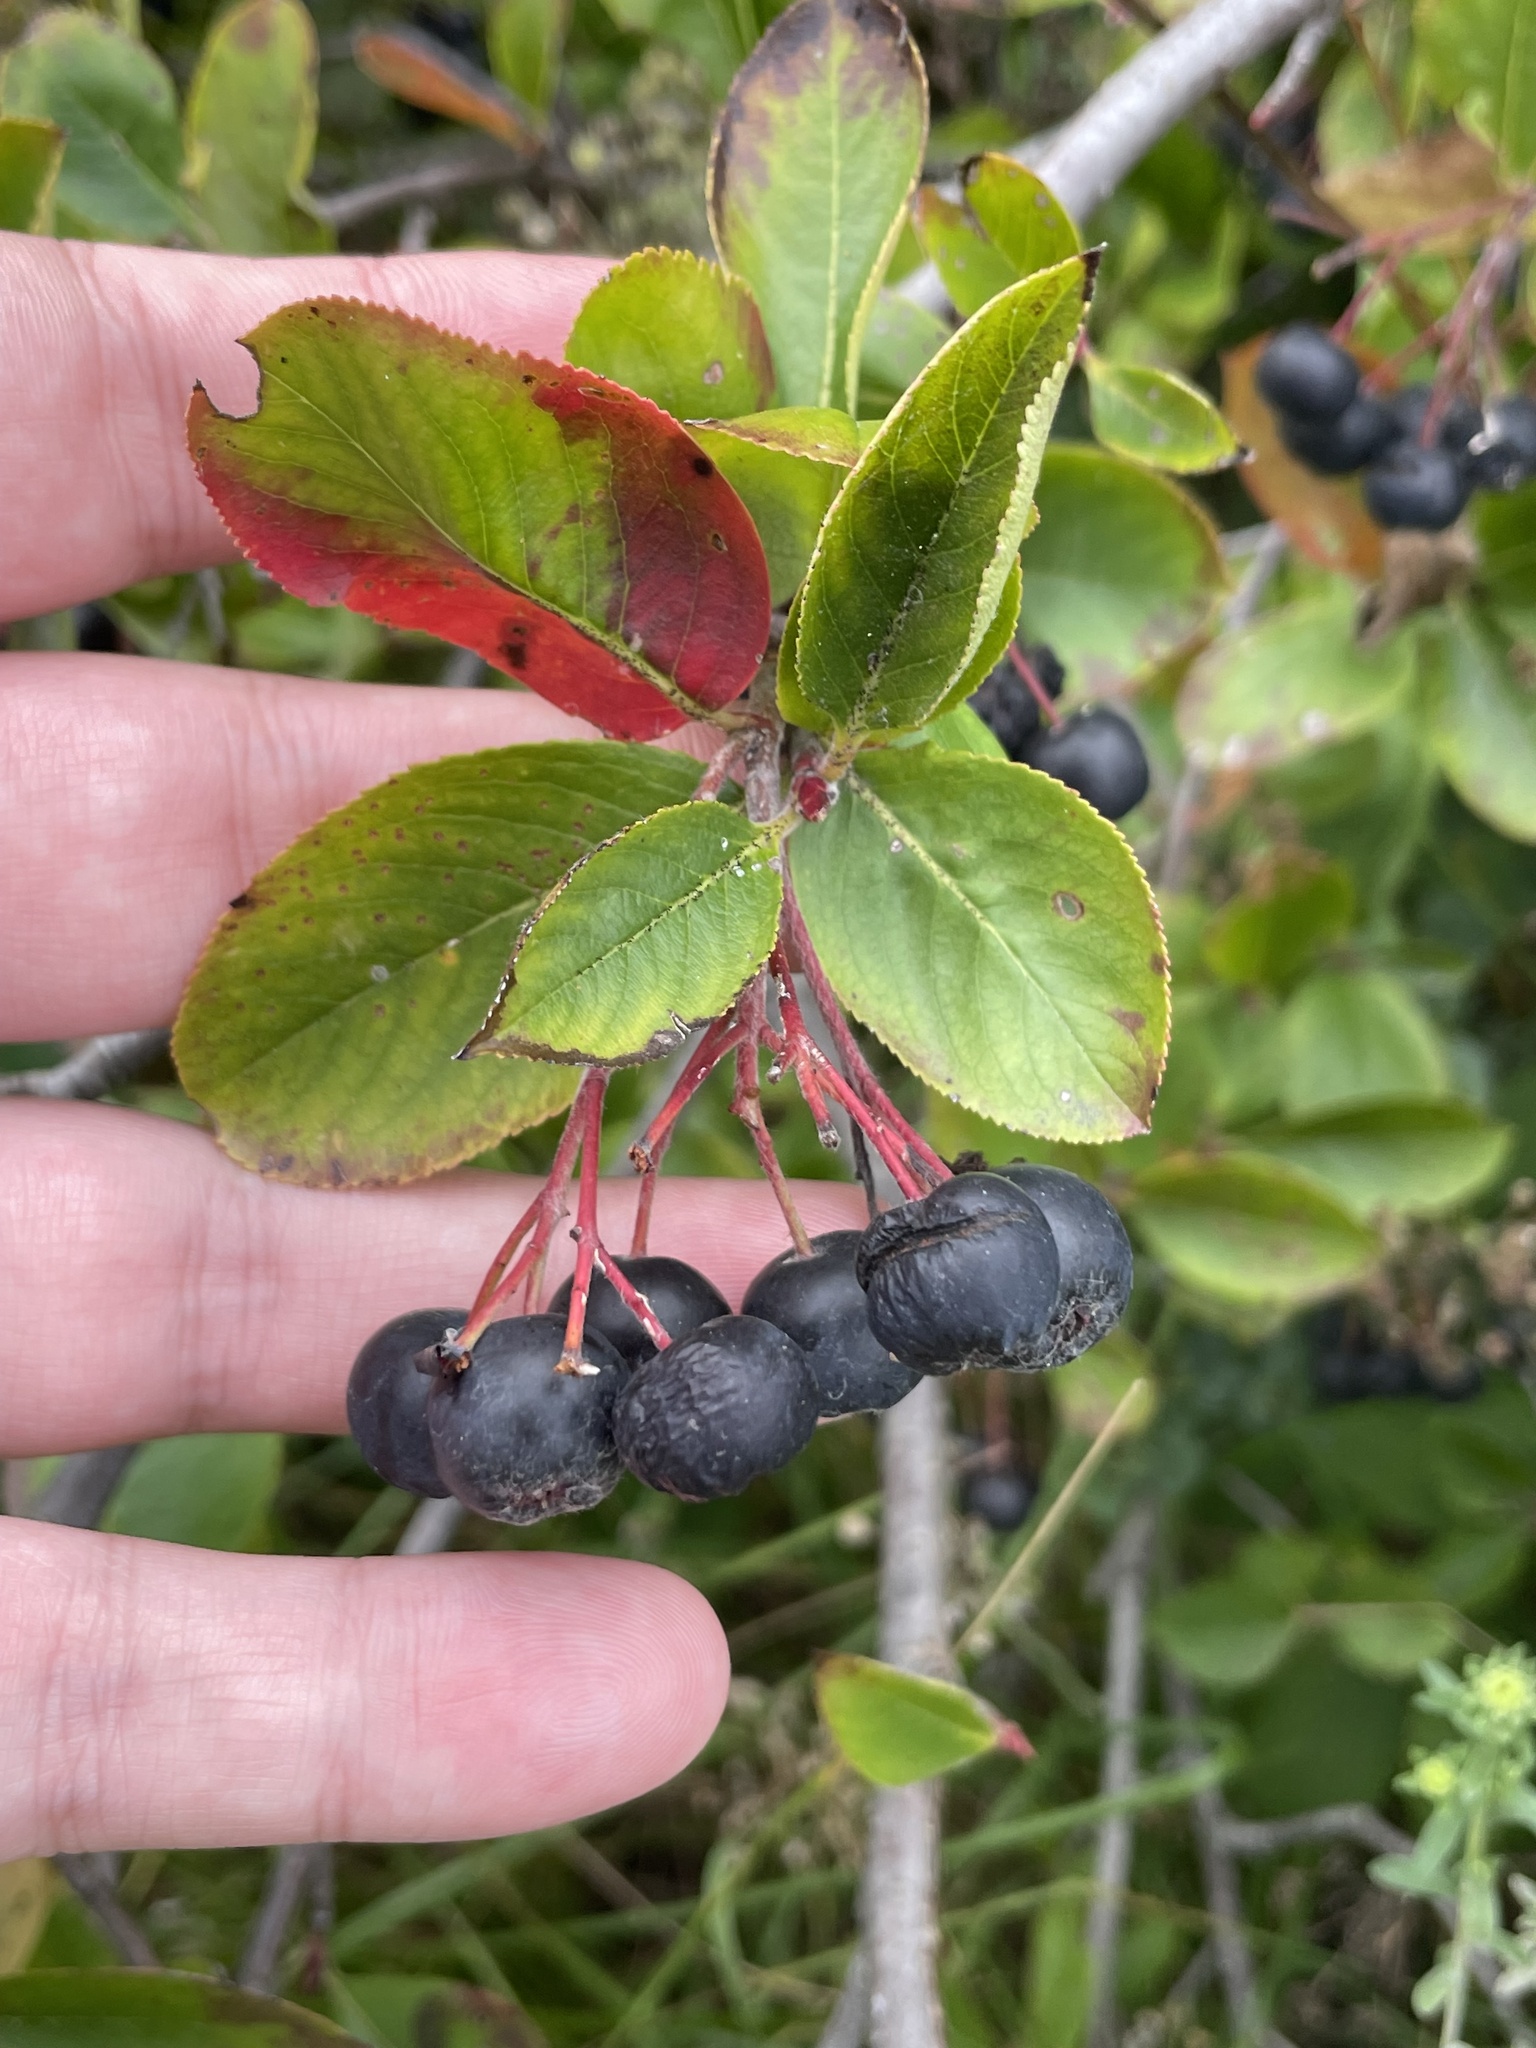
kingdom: Plantae
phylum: Tracheophyta
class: Magnoliopsida
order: Rosales
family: Rosaceae
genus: Aronia
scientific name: Aronia melanocarpa
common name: Black chokeberry
